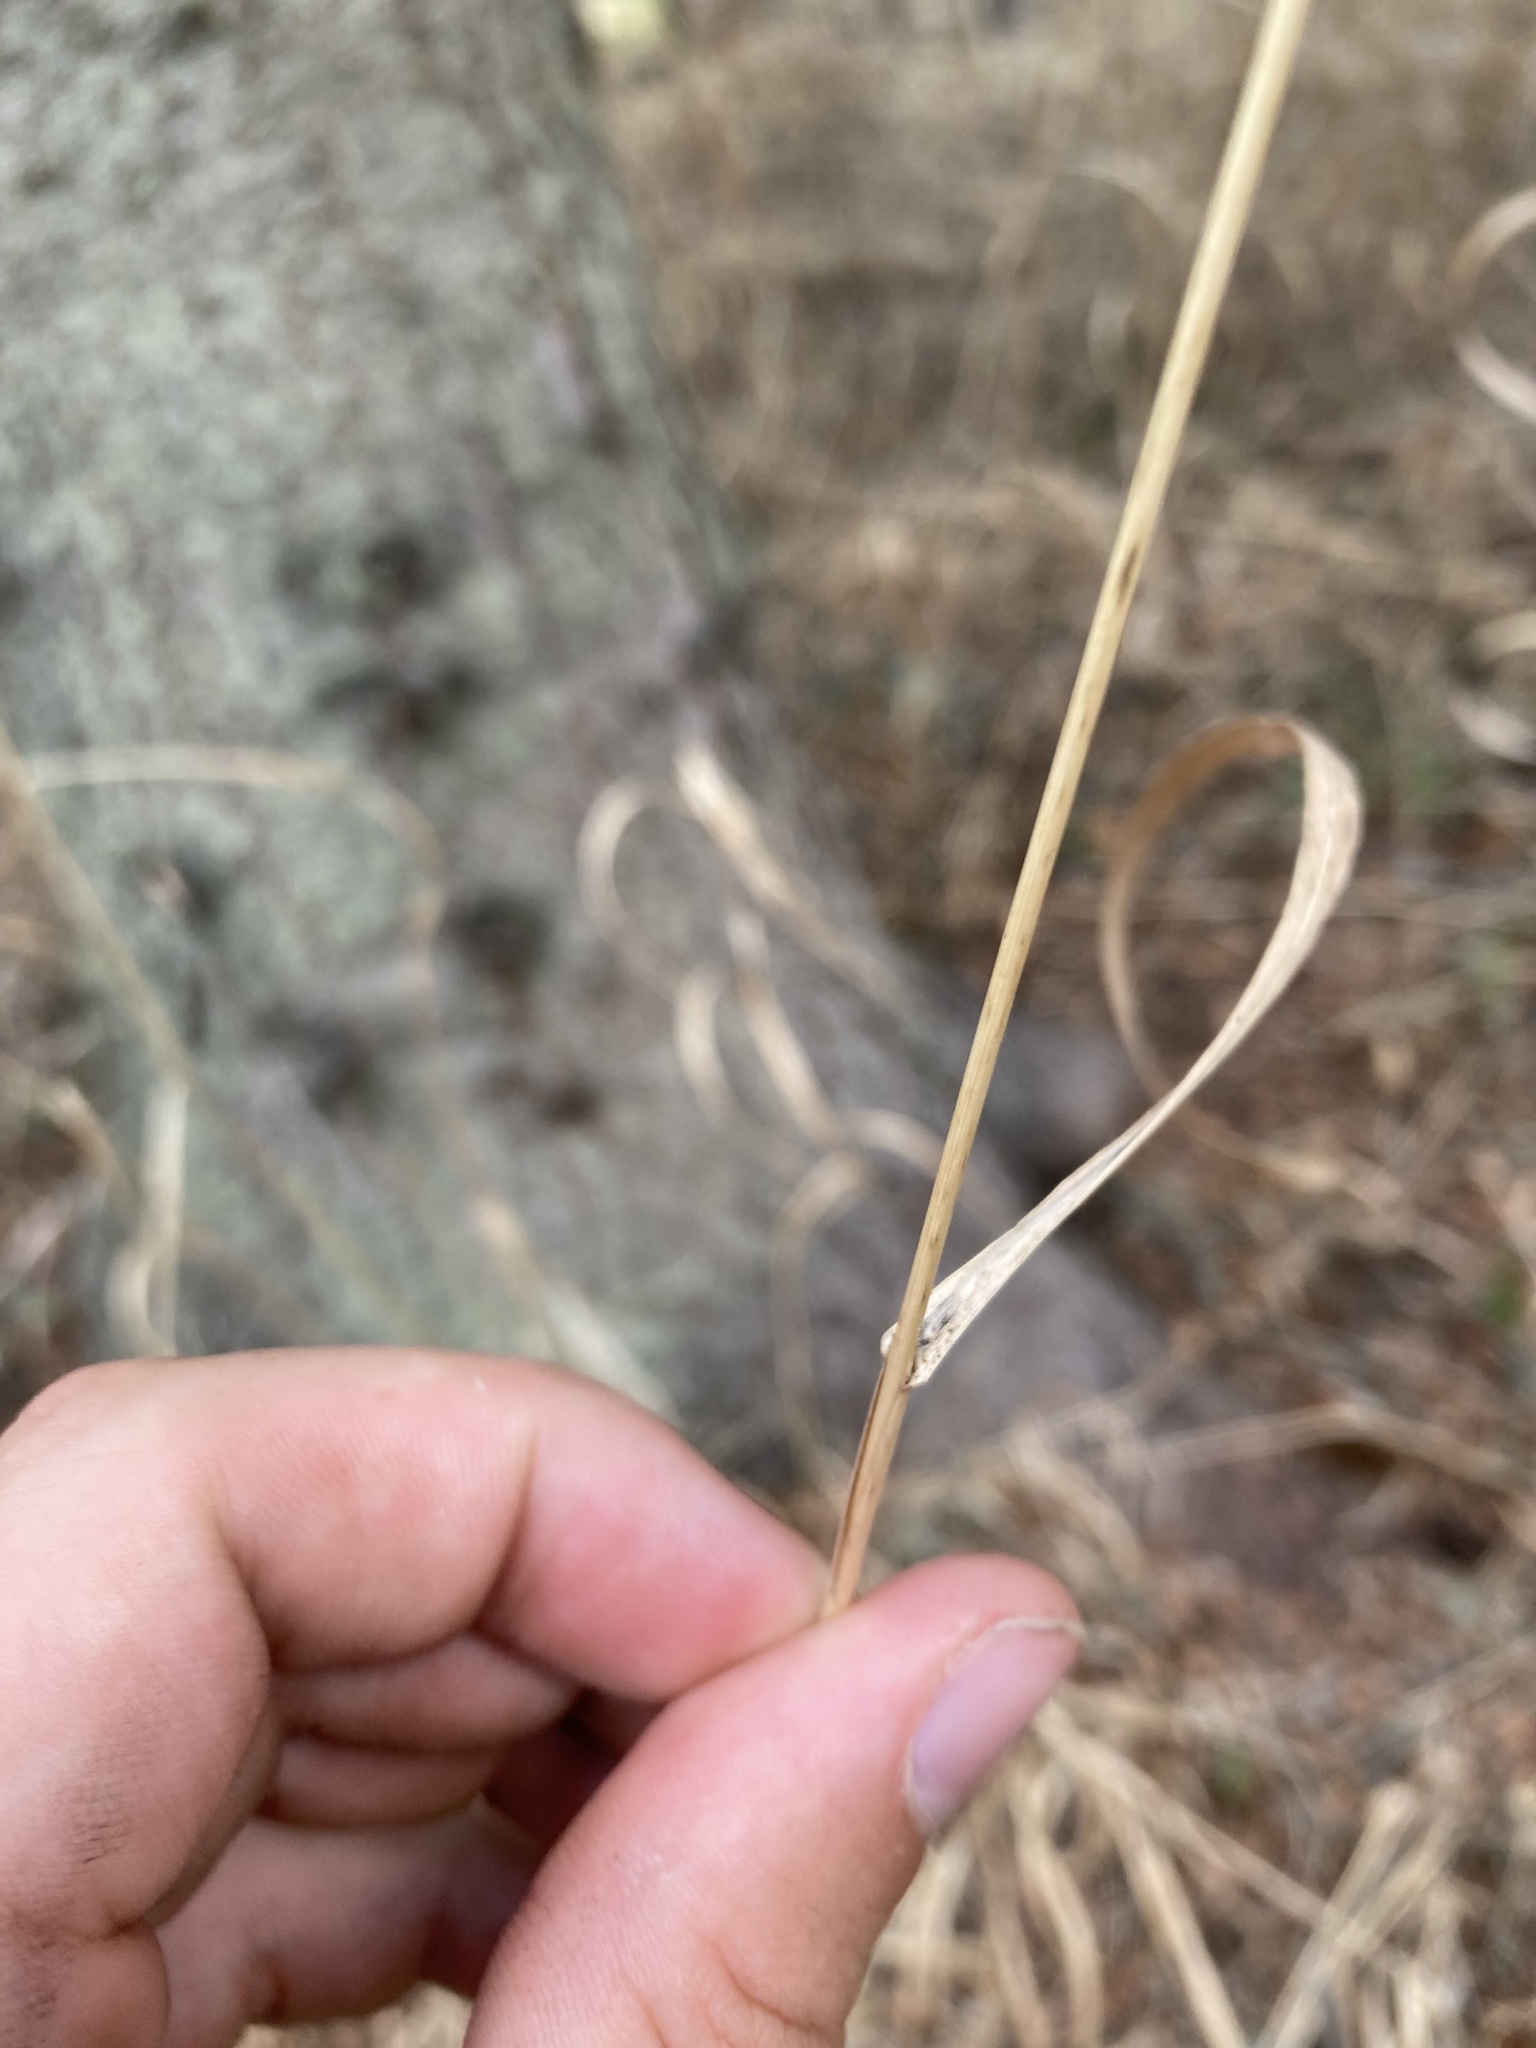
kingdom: Plantae
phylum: Tracheophyta
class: Liliopsida
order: Poales
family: Poaceae
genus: Bromus
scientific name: Bromus inermis
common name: Smooth brome
